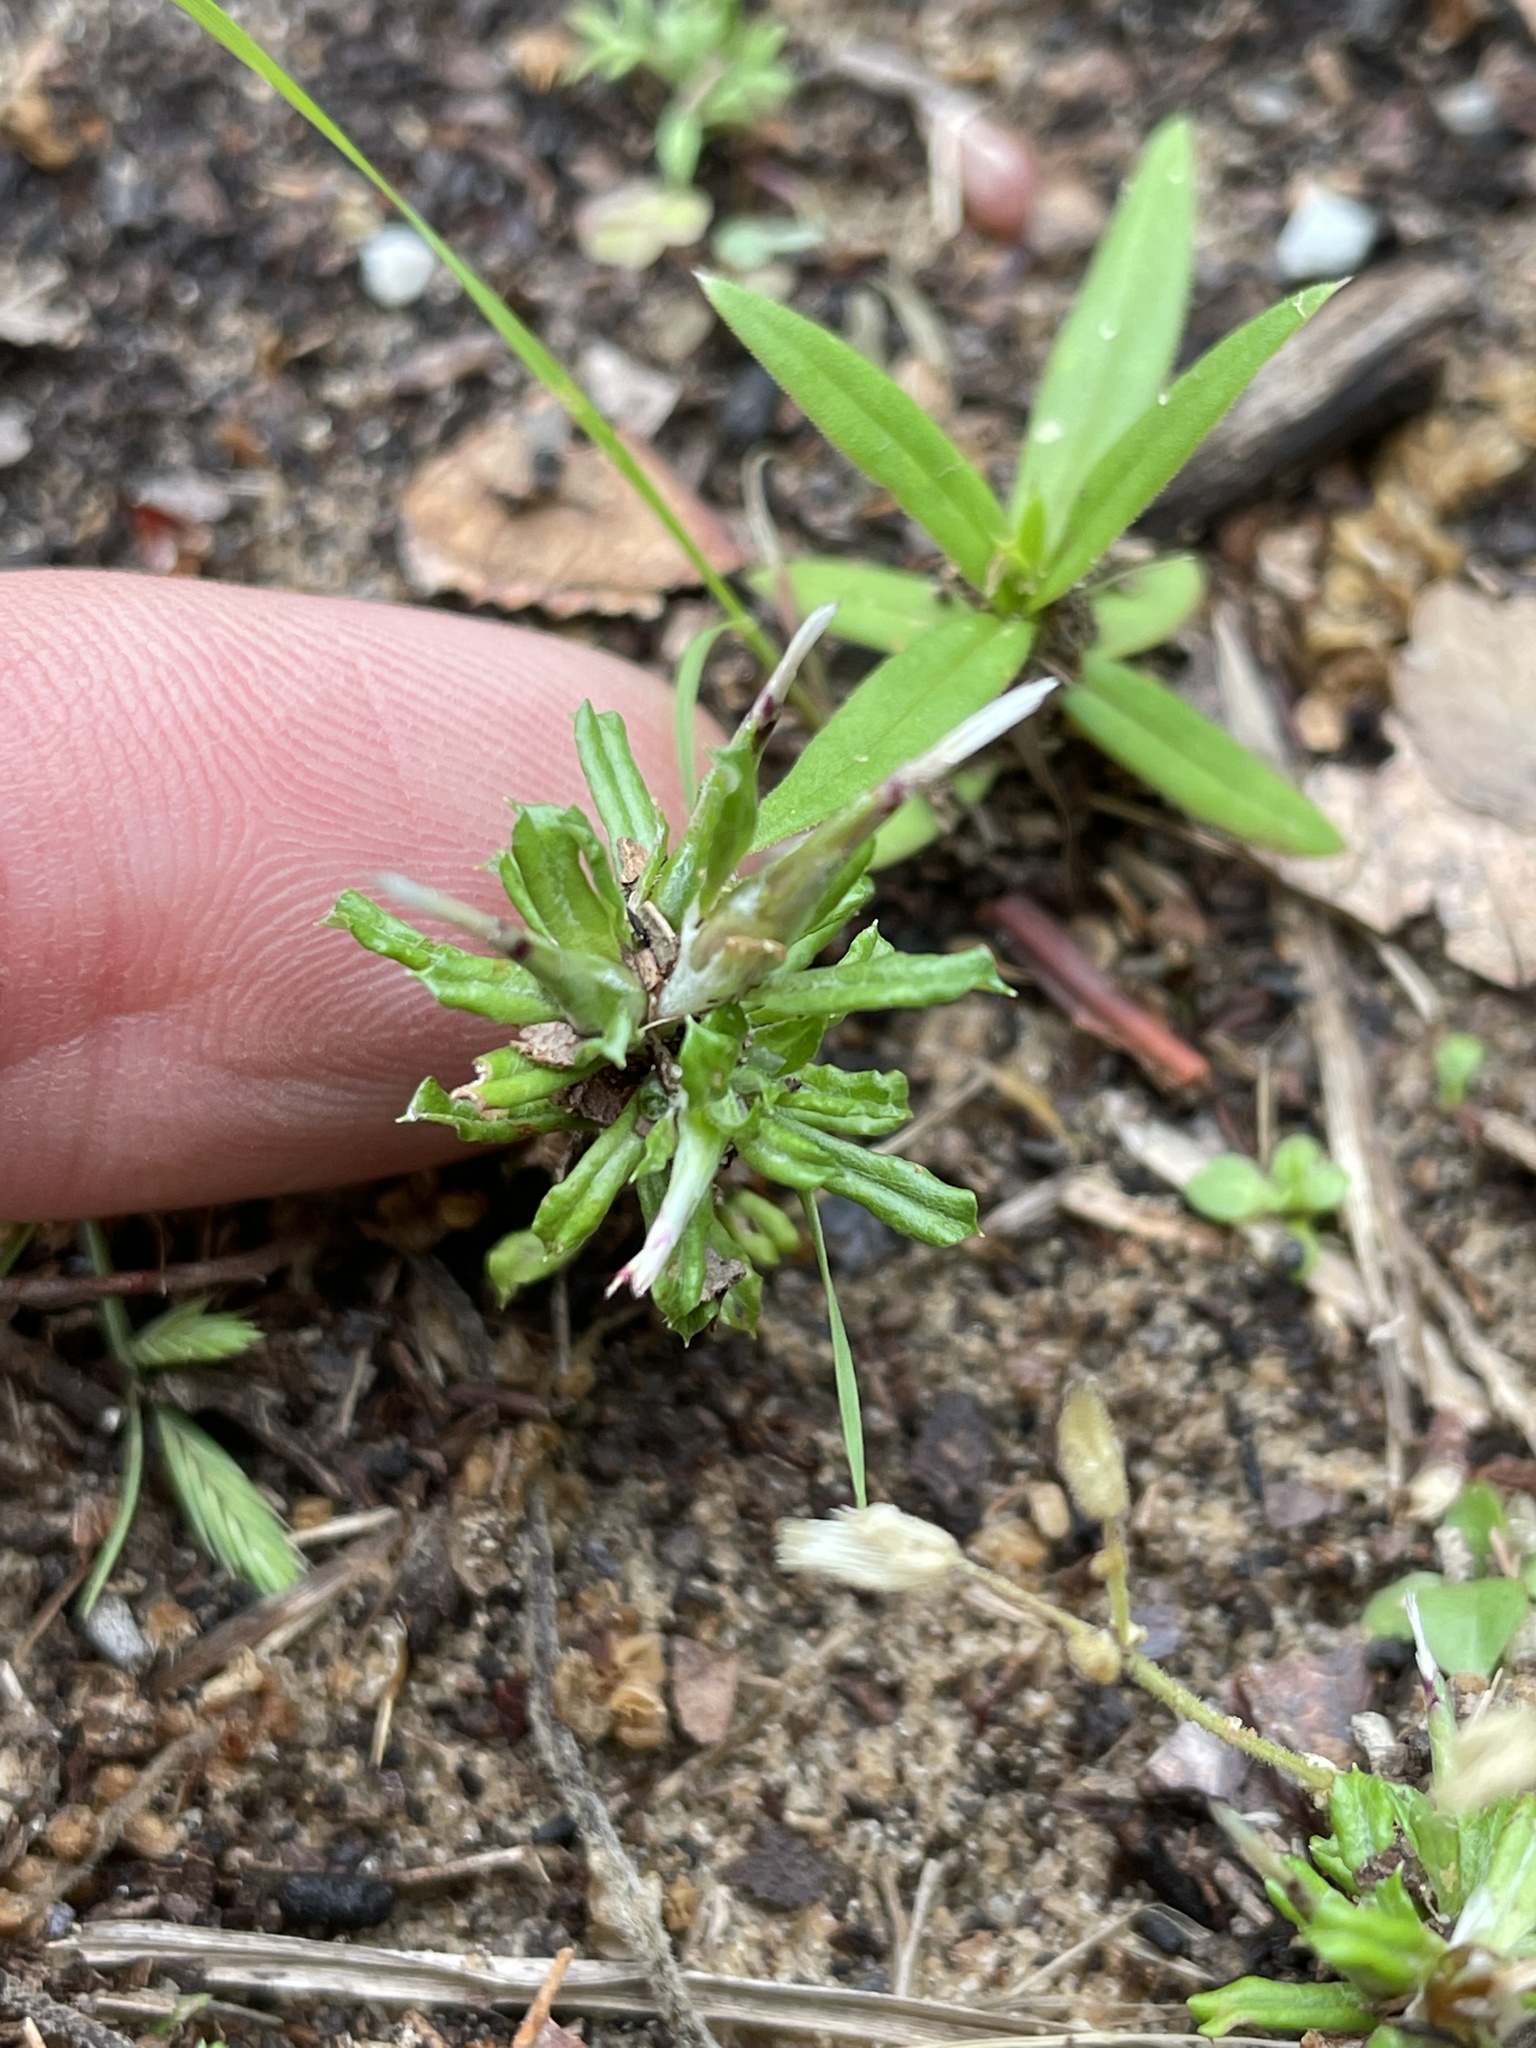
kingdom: Plantae
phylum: Tracheophyta
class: Magnoliopsida
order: Asterales
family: Asteraceae
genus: Facelis
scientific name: Facelis retusa
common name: Annual trampweed
